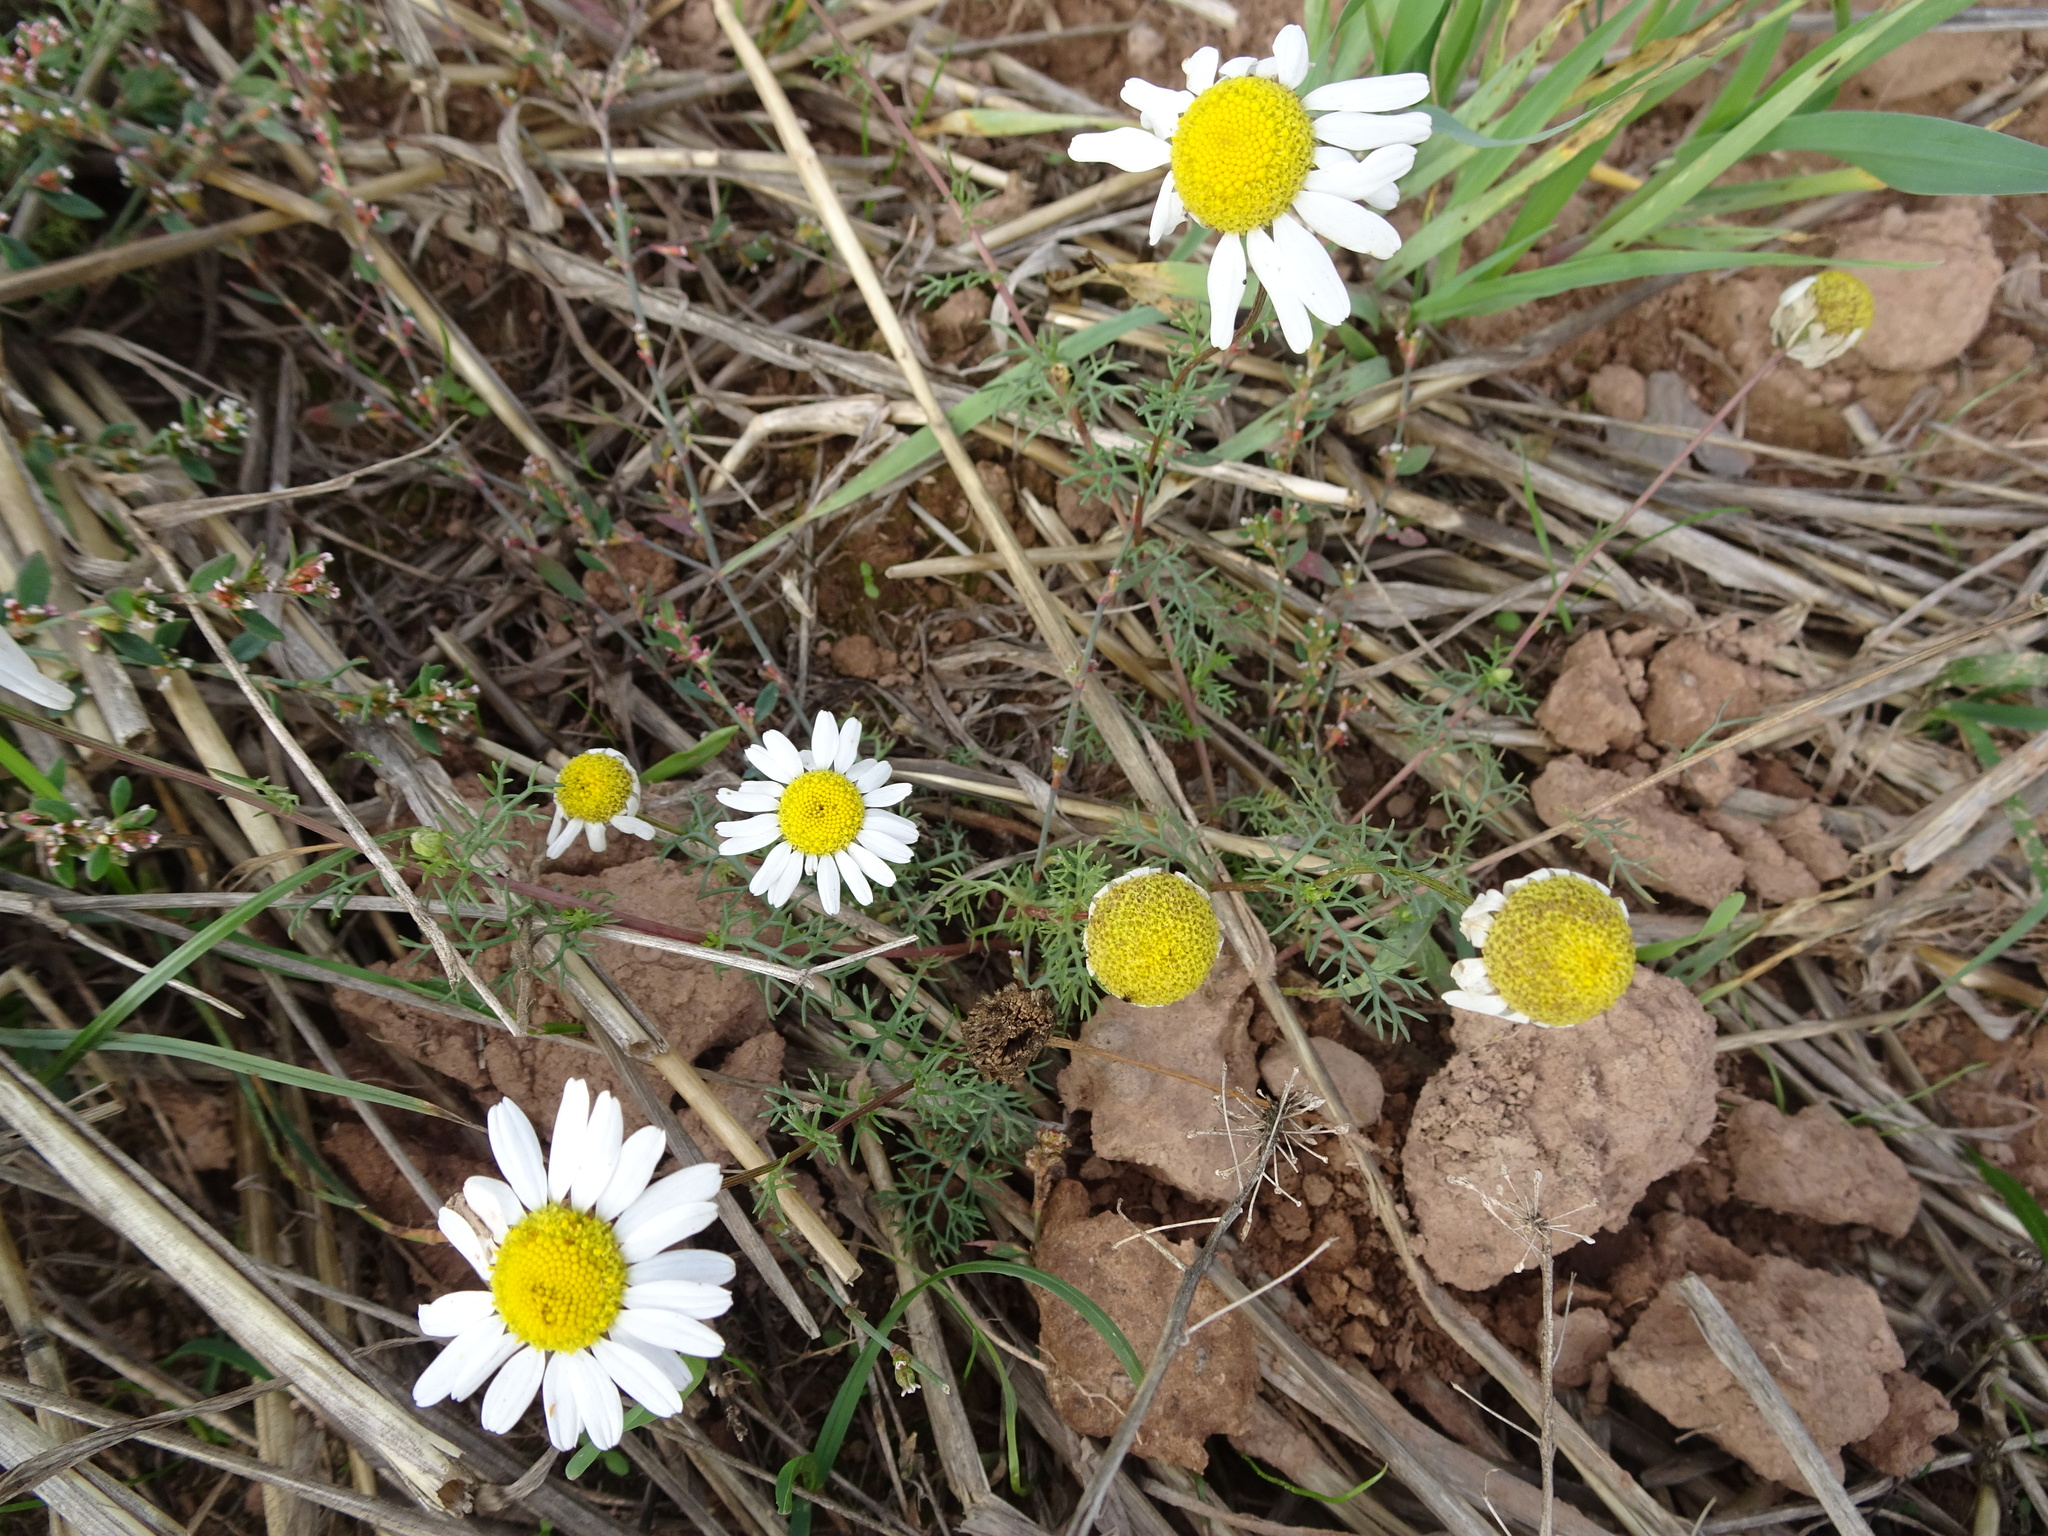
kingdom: Plantae
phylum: Tracheophyta
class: Magnoliopsida
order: Asterales
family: Asteraceae
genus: Tripleurospermum
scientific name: Tripleurospermum inodorum
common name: Scentless mayweed
